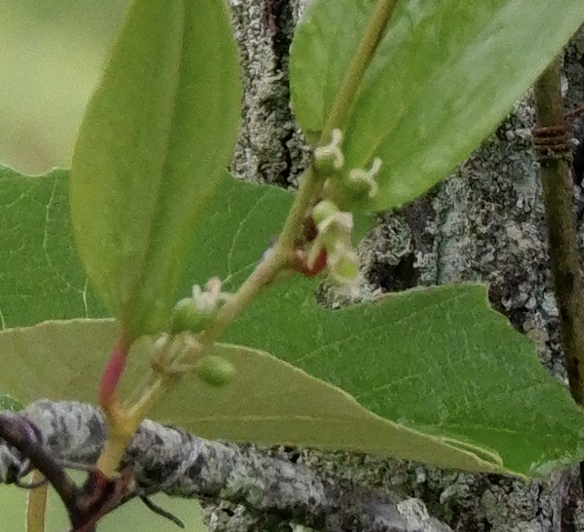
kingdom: Plantae
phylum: Tracheophyta
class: Liliopsida
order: Liliales
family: Smilacaceae
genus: Smilax
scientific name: Smilax walteri
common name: Coral greenbrier
